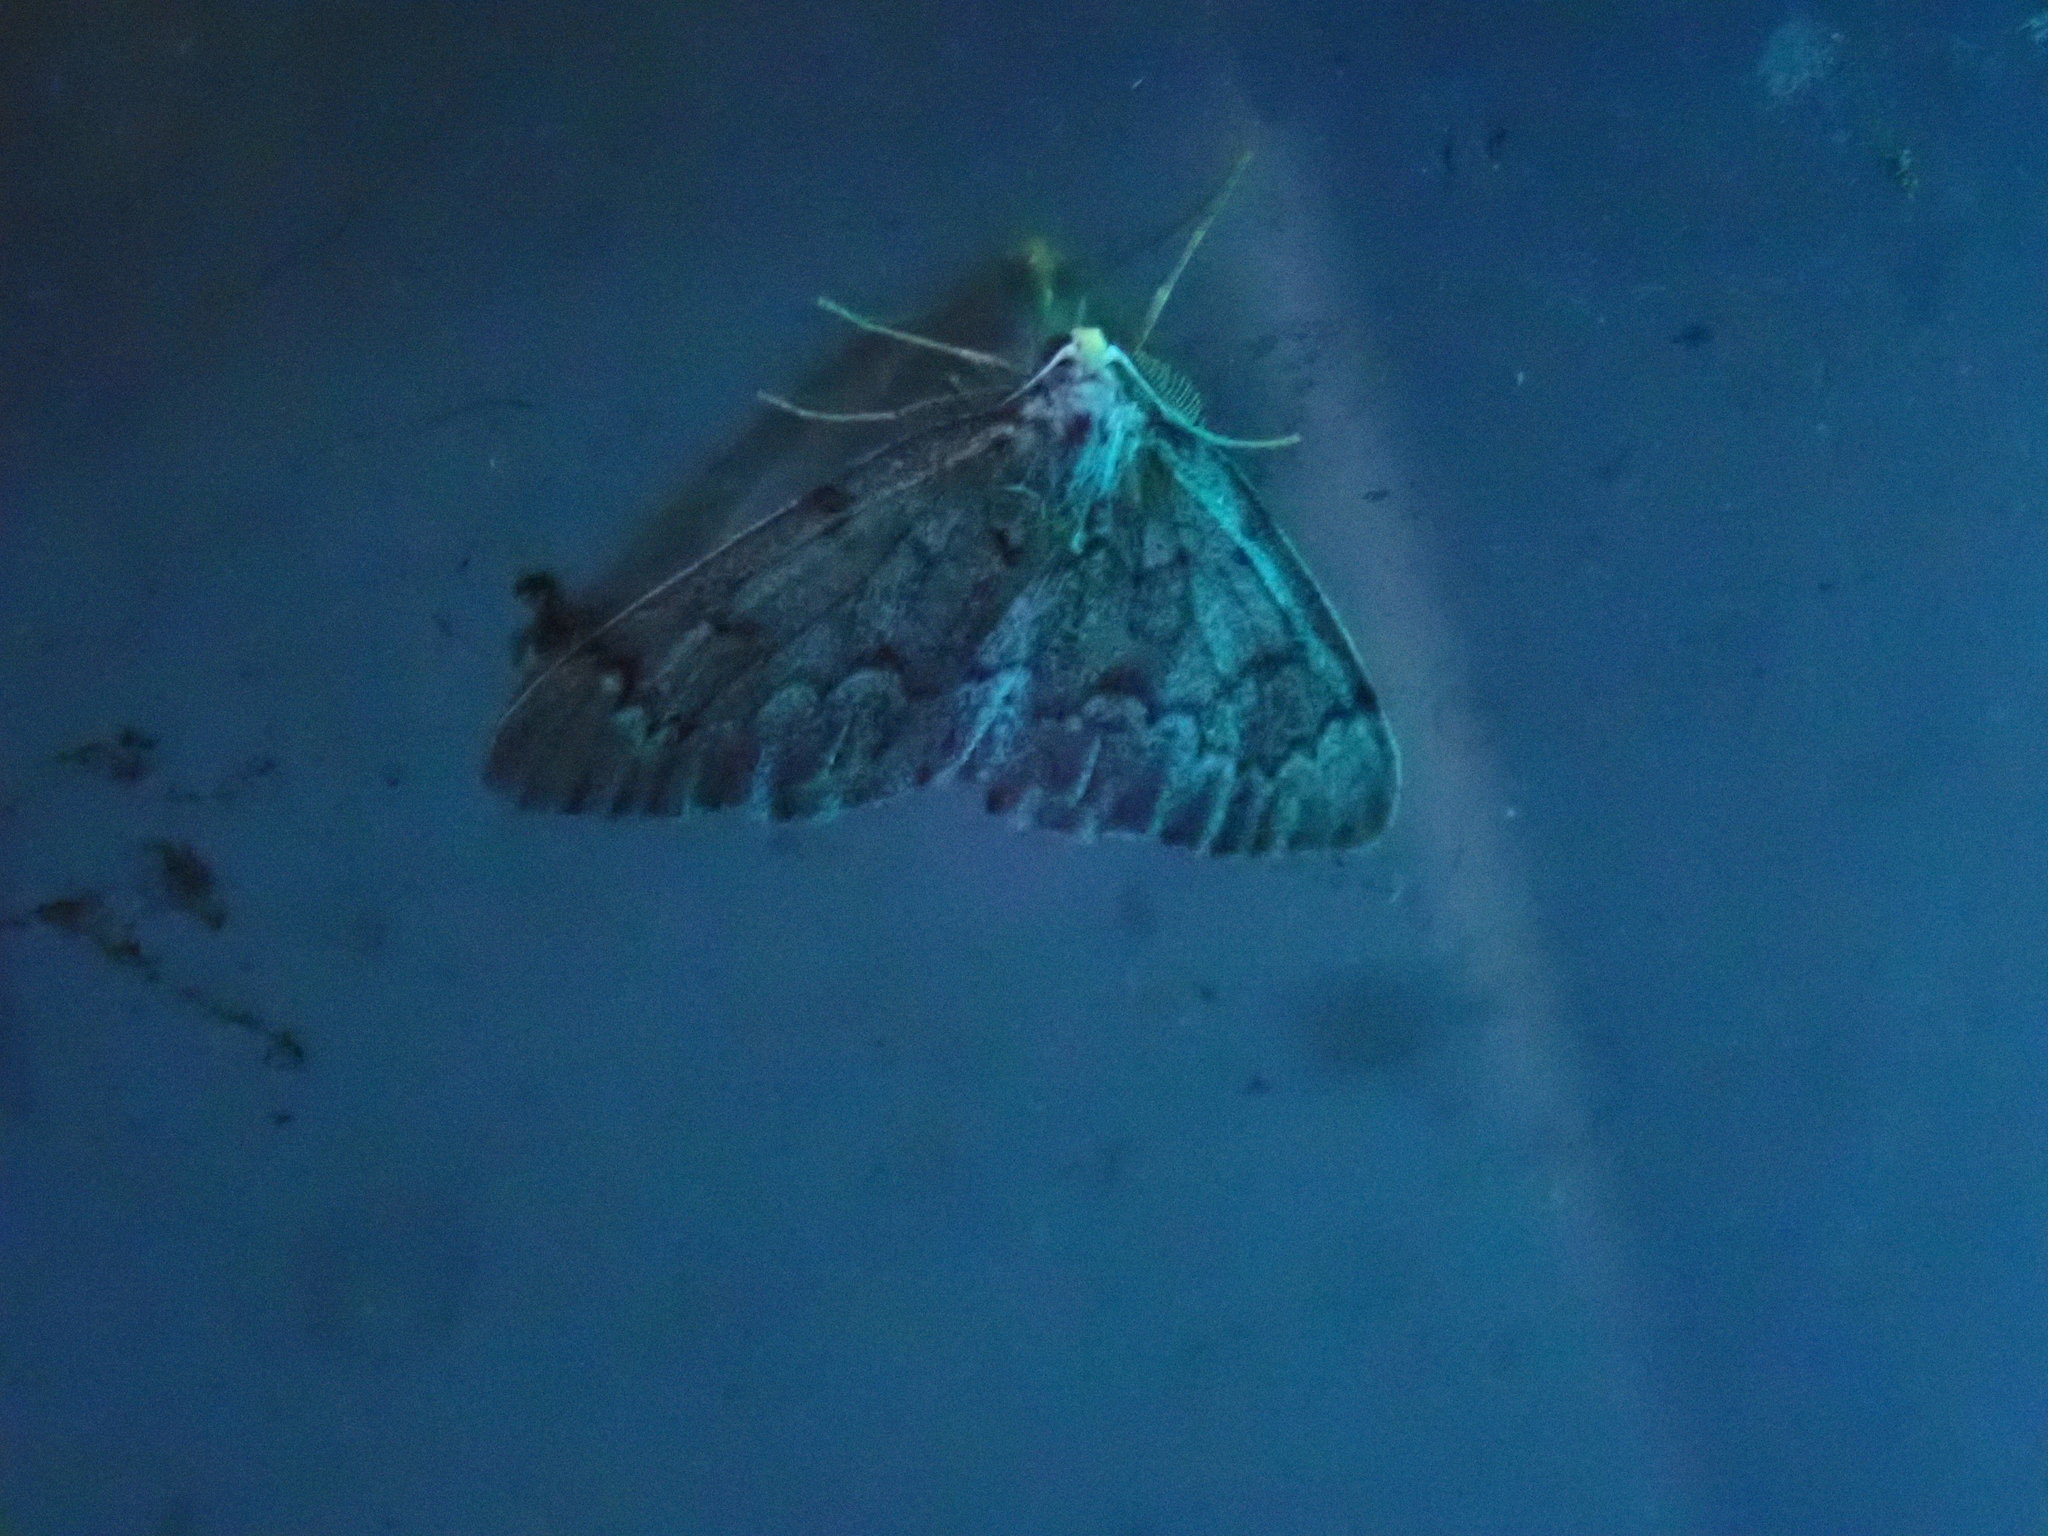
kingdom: Animalia
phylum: Arthropoda
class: Insecta
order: Lepidoptera
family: Geometridae
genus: Nepytia
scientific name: Nepytia canosaria
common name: False hemlock looper
